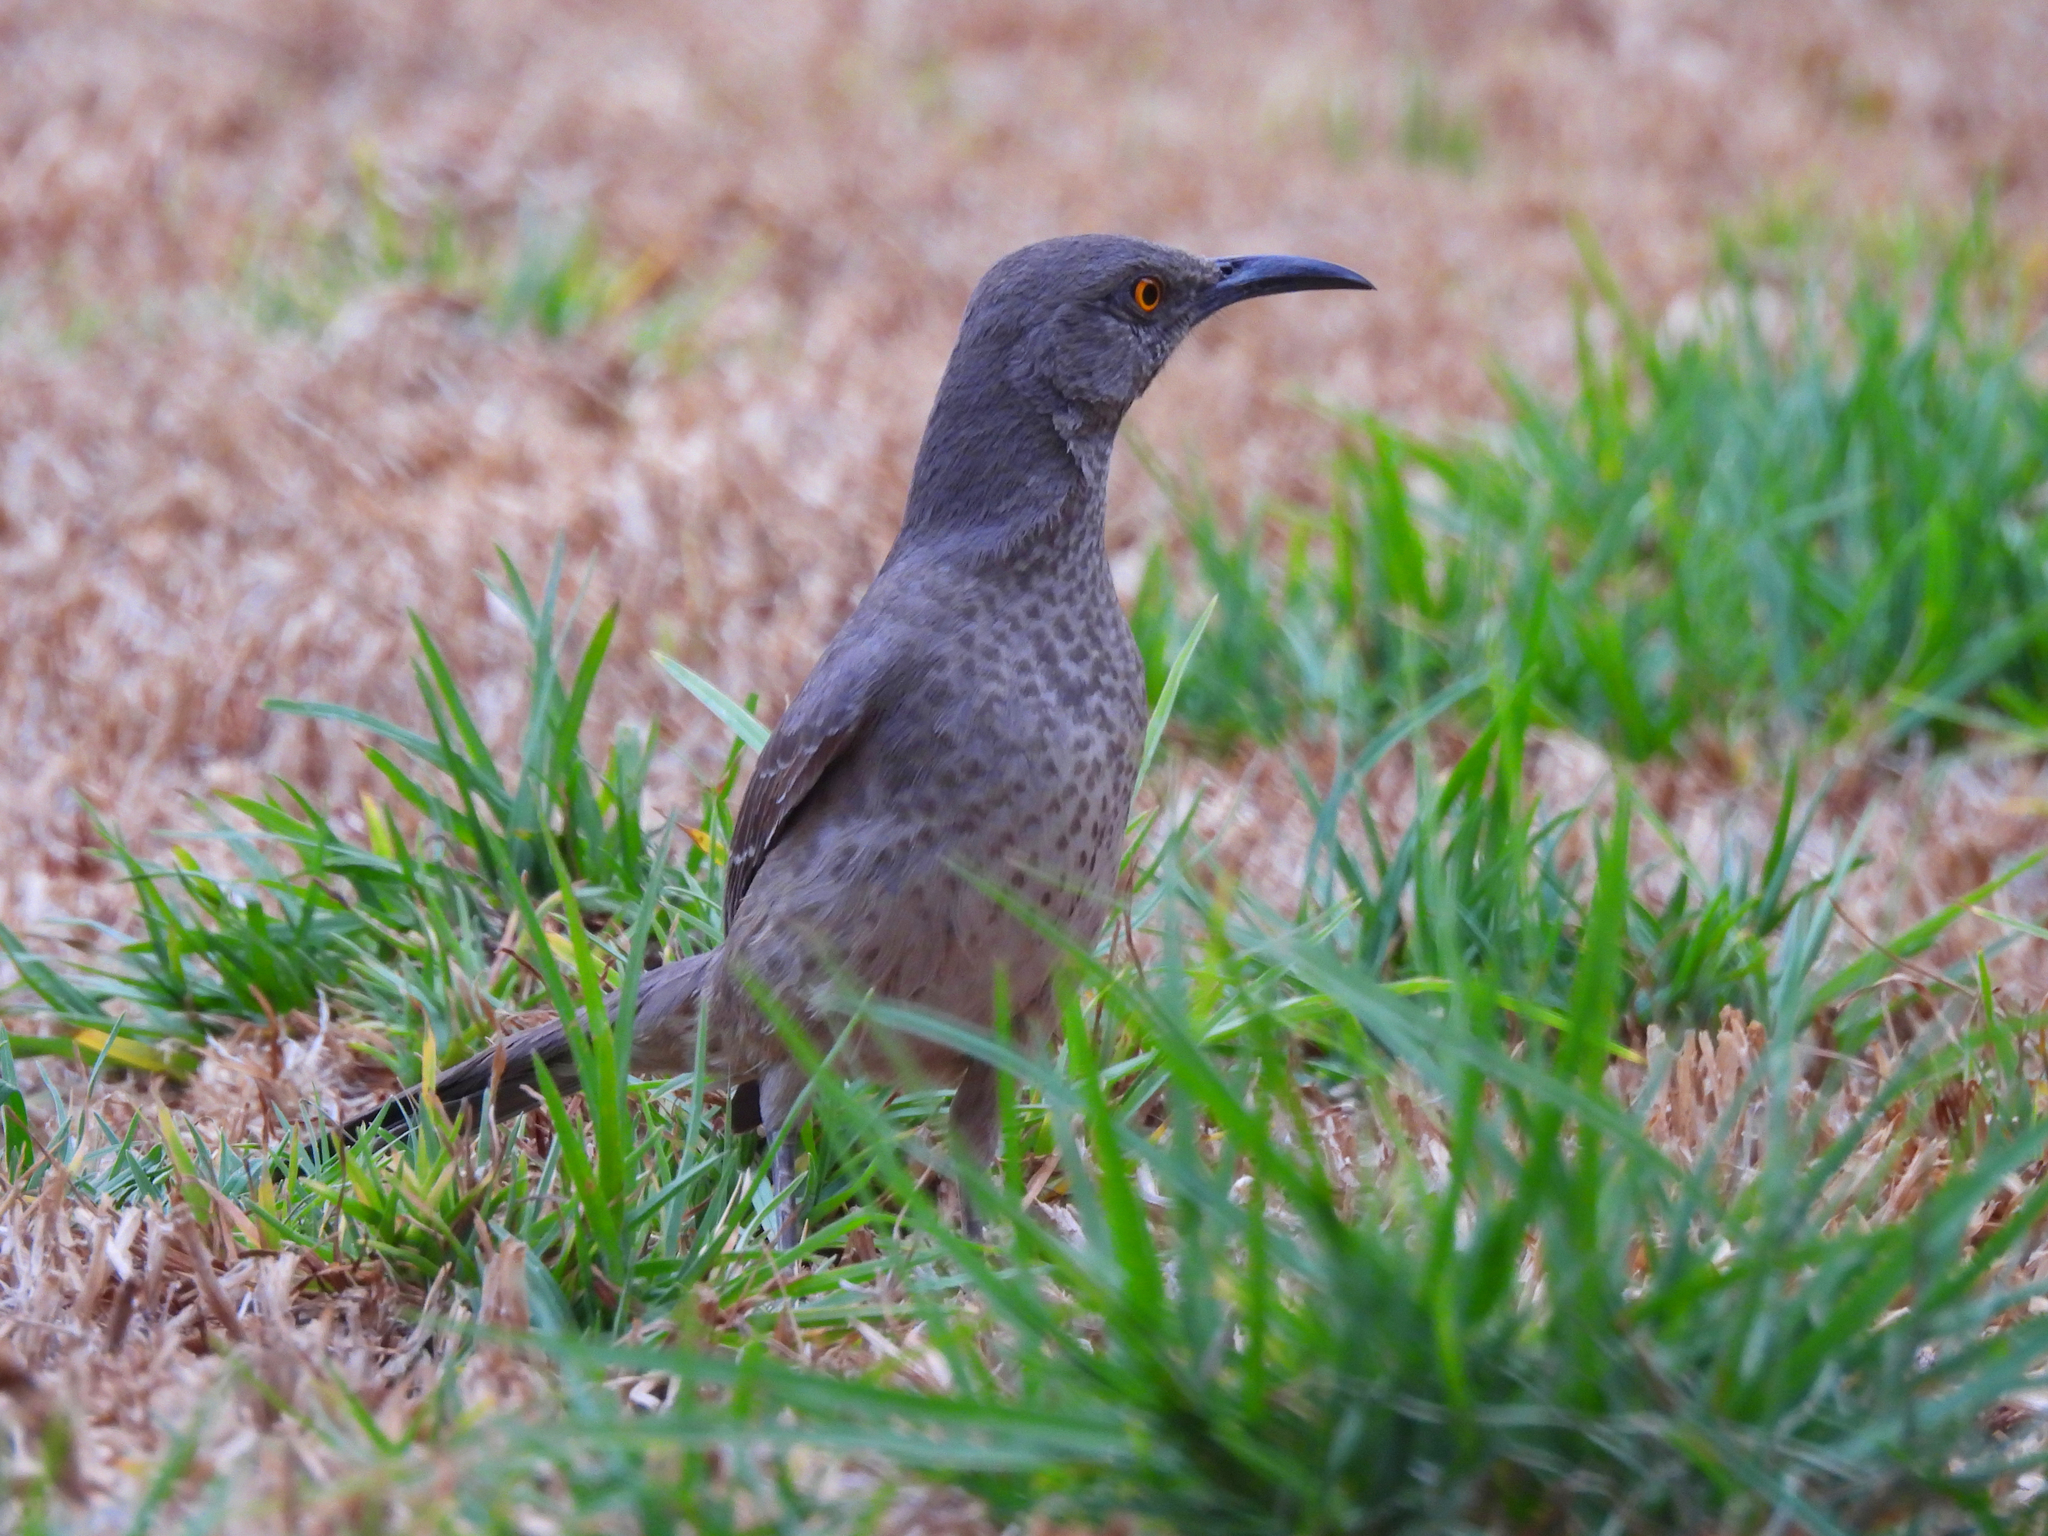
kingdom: Animalia
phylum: Chordata
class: Aves
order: Passeriformes
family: Mimidae
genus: Toxostoma
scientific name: Toxostoma curvirostre
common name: Curve-billed thrasher
